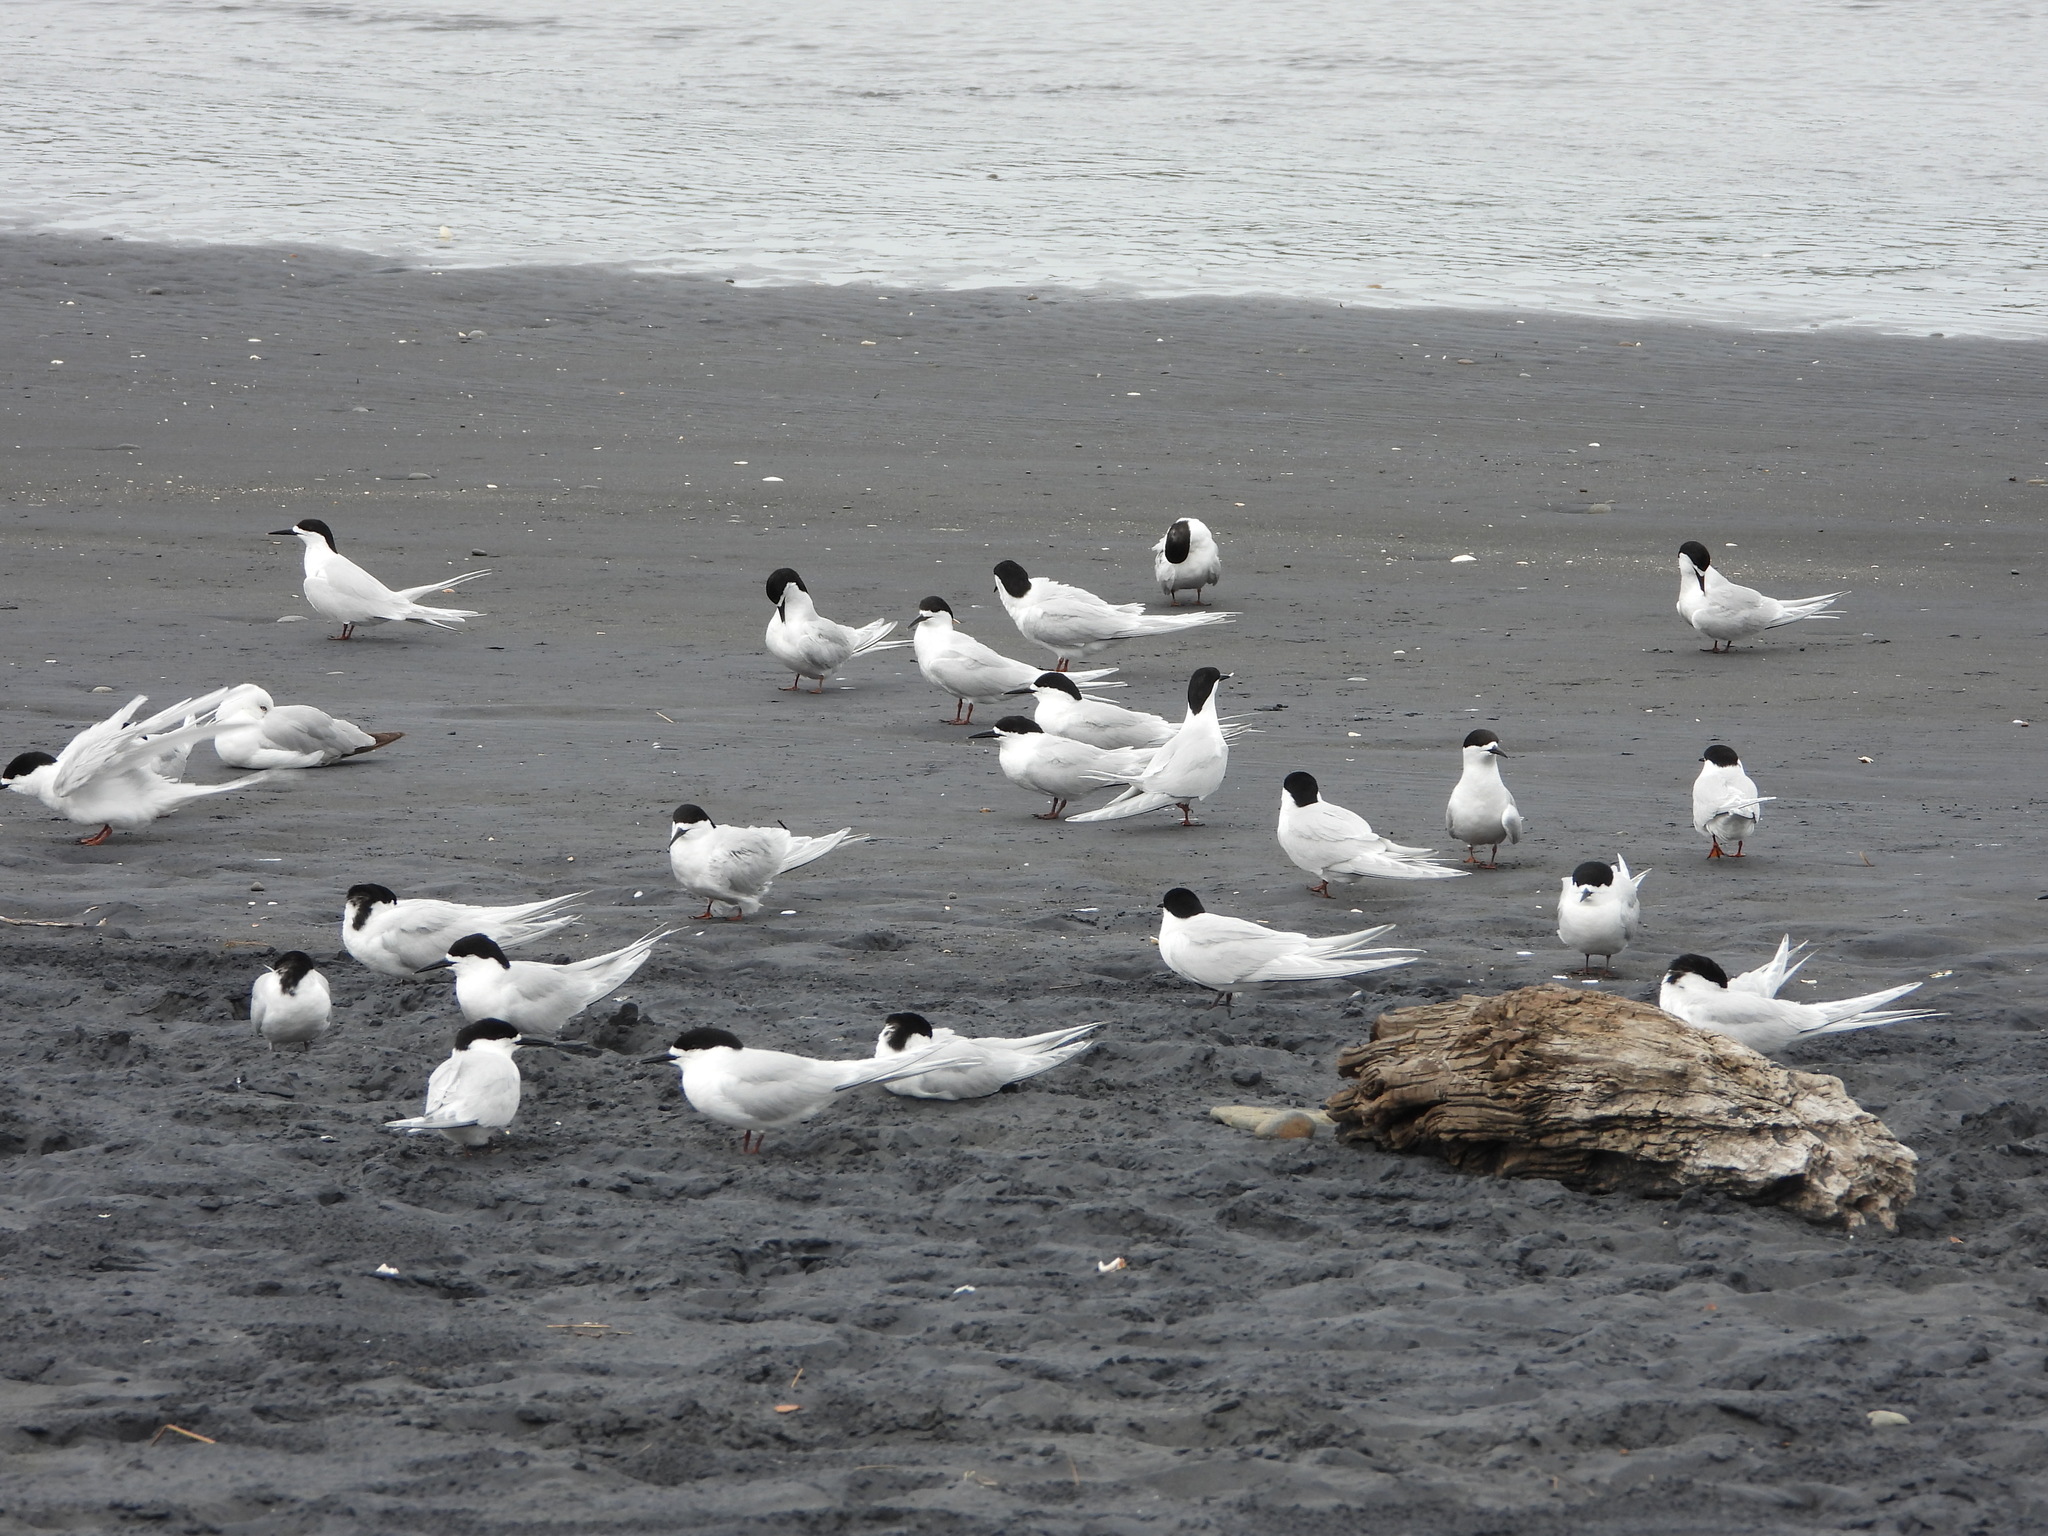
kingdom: Animalia
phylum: Chordata
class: Aves
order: Charadriiformes
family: Laridae
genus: Sterna
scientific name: Sterna striata
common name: White-fronted tern
